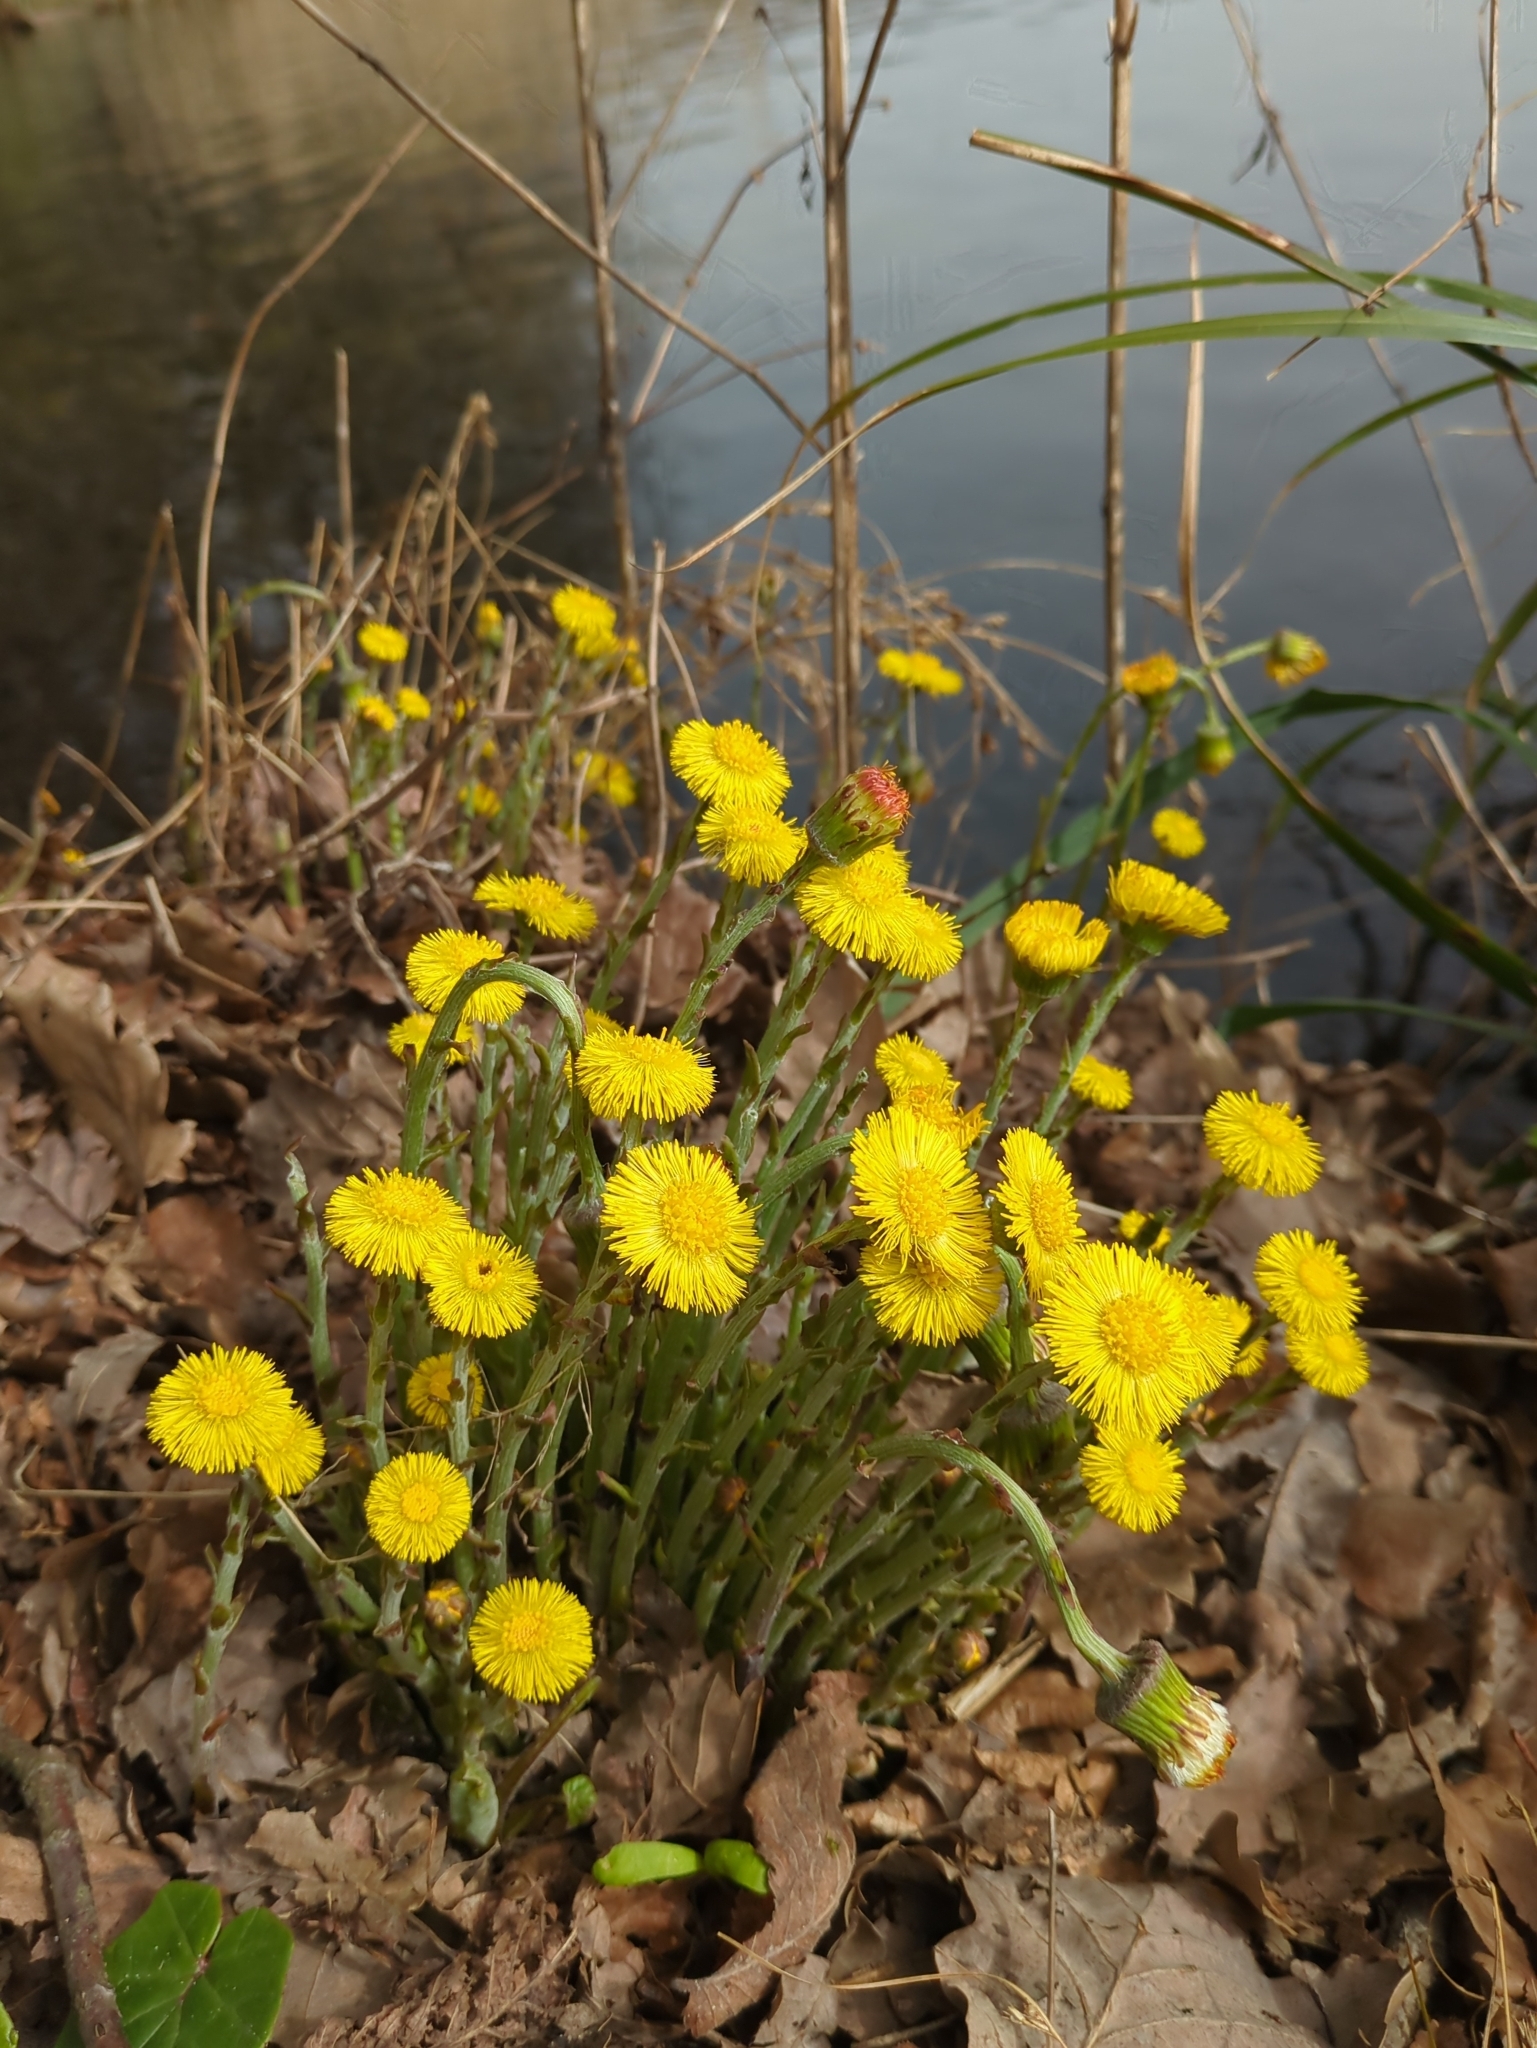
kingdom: Plantae
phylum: Tracheophyta
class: Magnoliopsida
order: Asterales
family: Asteraceae
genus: Tussilago
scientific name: Tussilago farfara
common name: Coltsfoot
